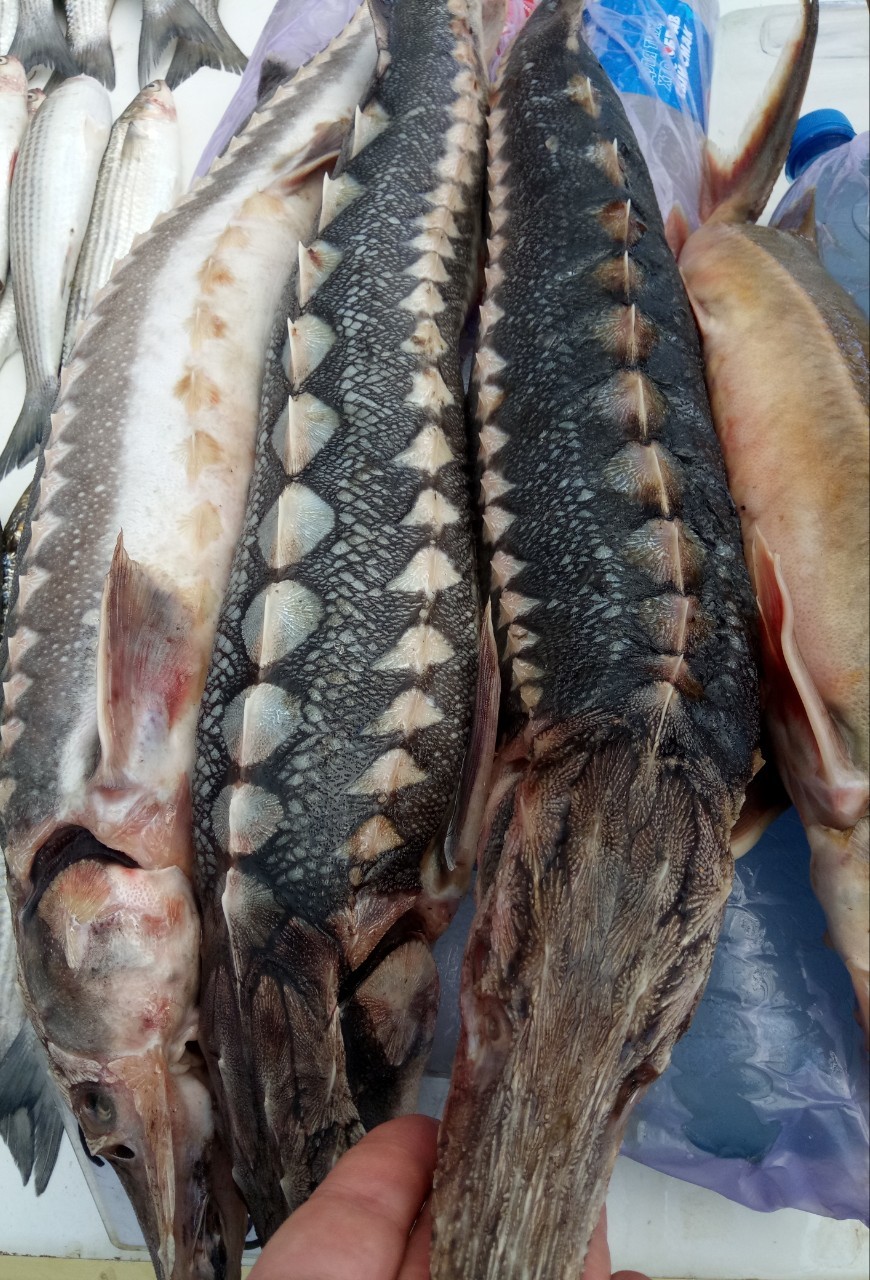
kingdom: Animalia
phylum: Chordata
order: Acipenseriformes
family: Acipenseridae
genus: Acipenser
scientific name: Acipenser stellatus
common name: Stellate sturgeon
